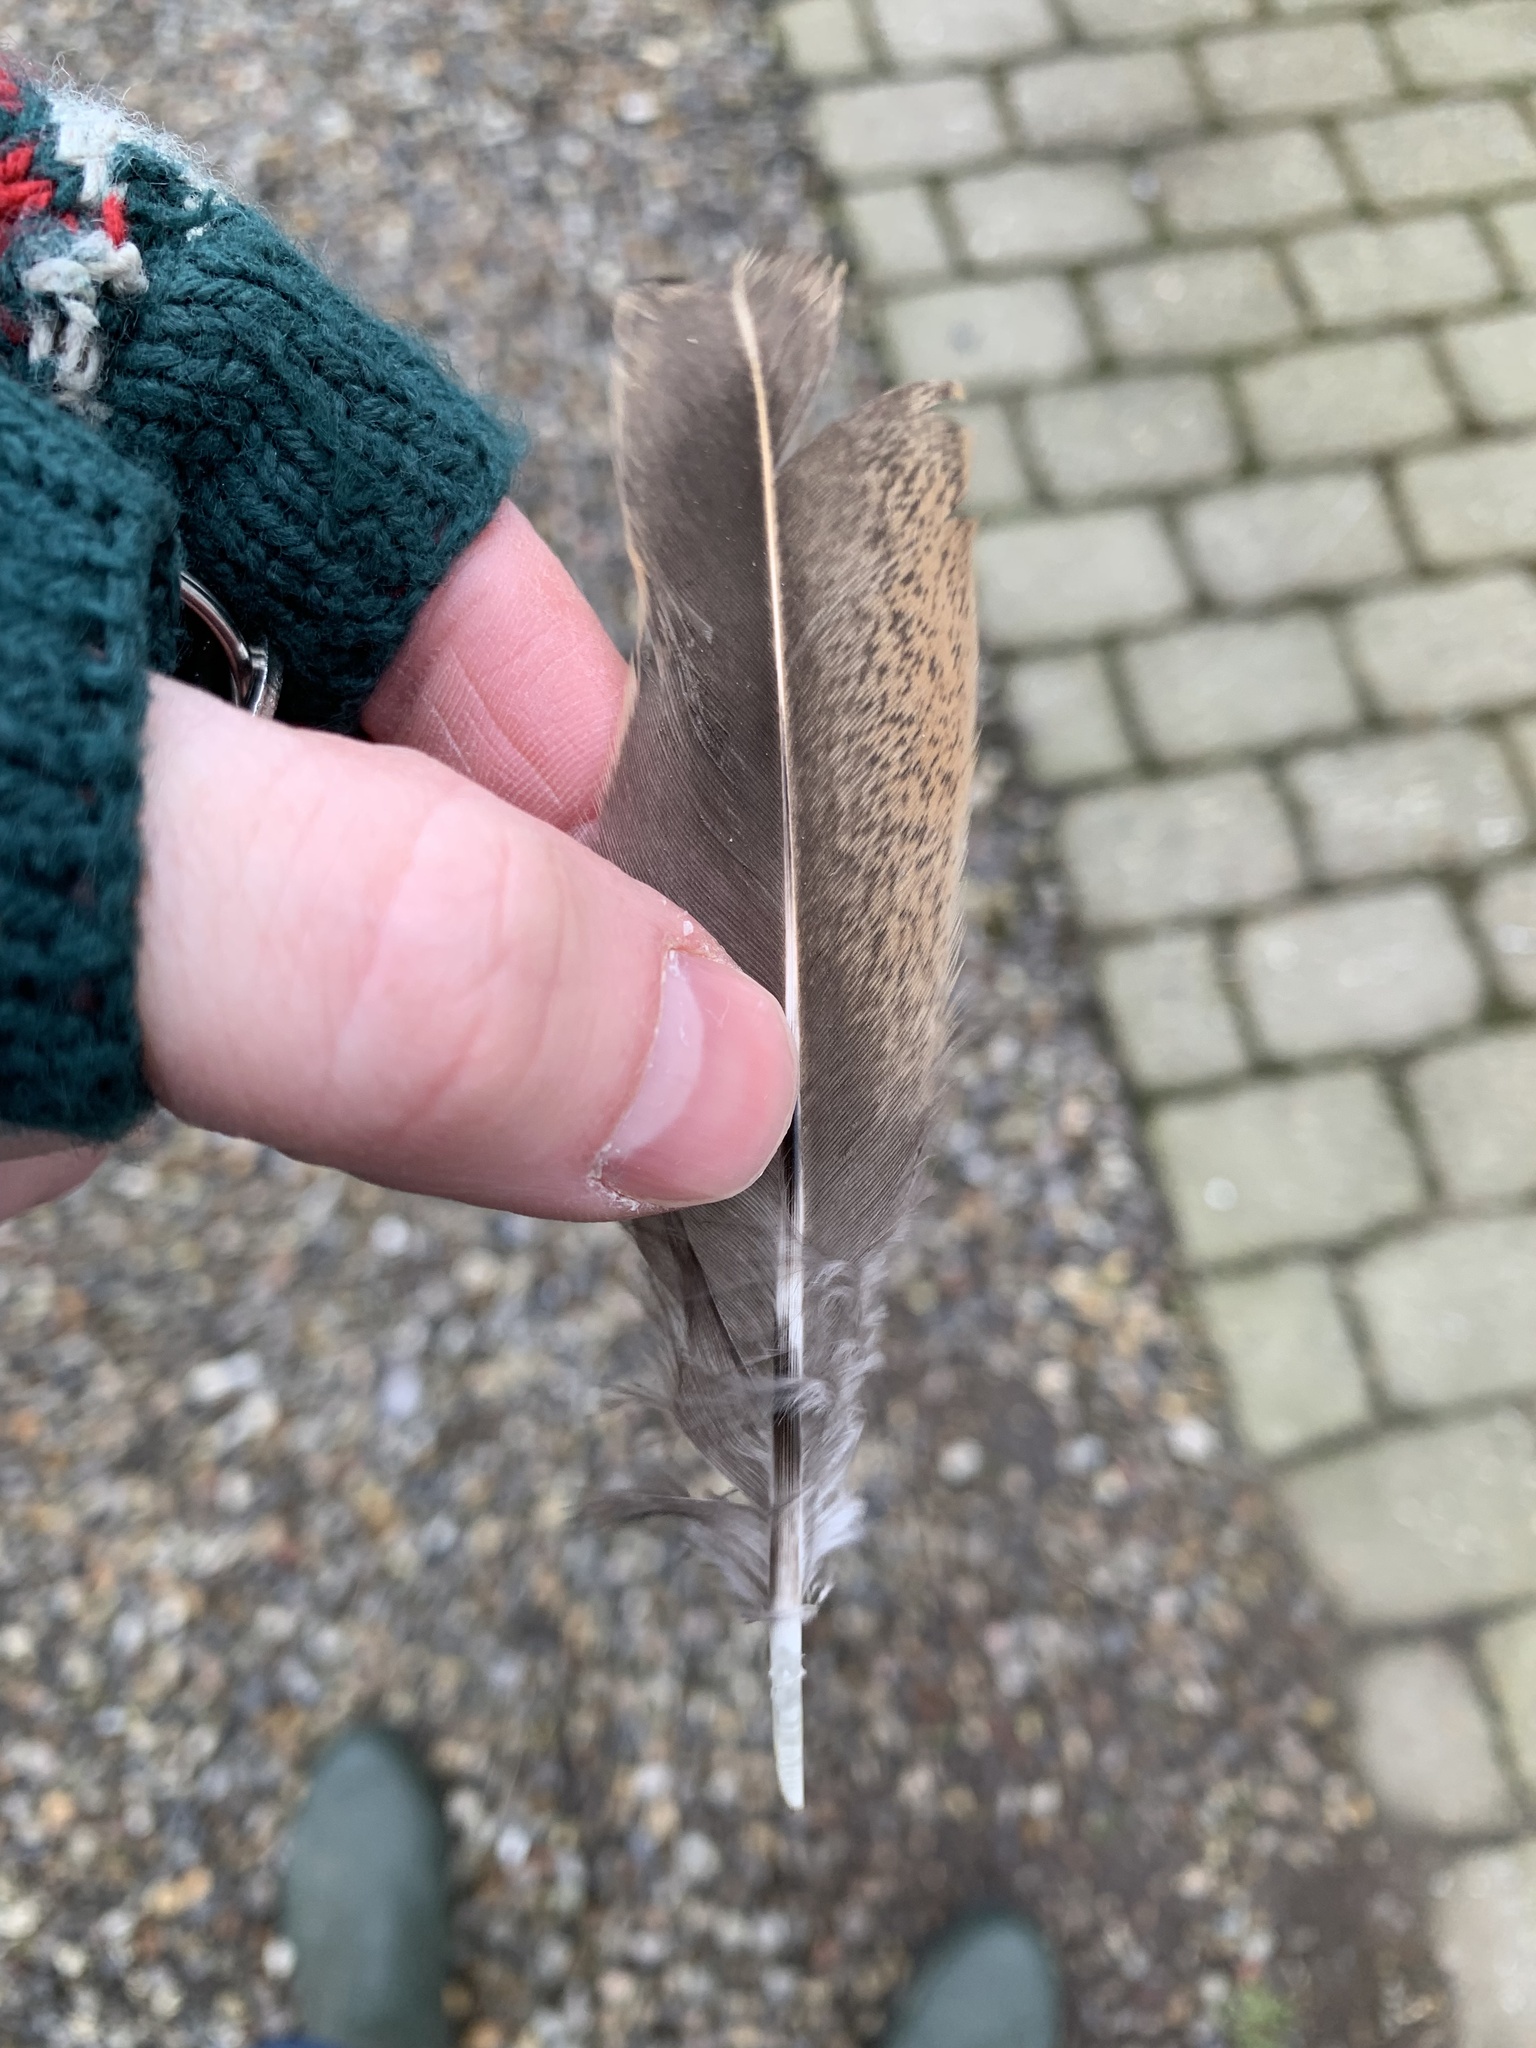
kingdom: Animalia
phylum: Chordata
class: Aves
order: Galliformes
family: Phasianidae
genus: Phasianus
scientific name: Phasianus colchicus
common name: Common pheasant
